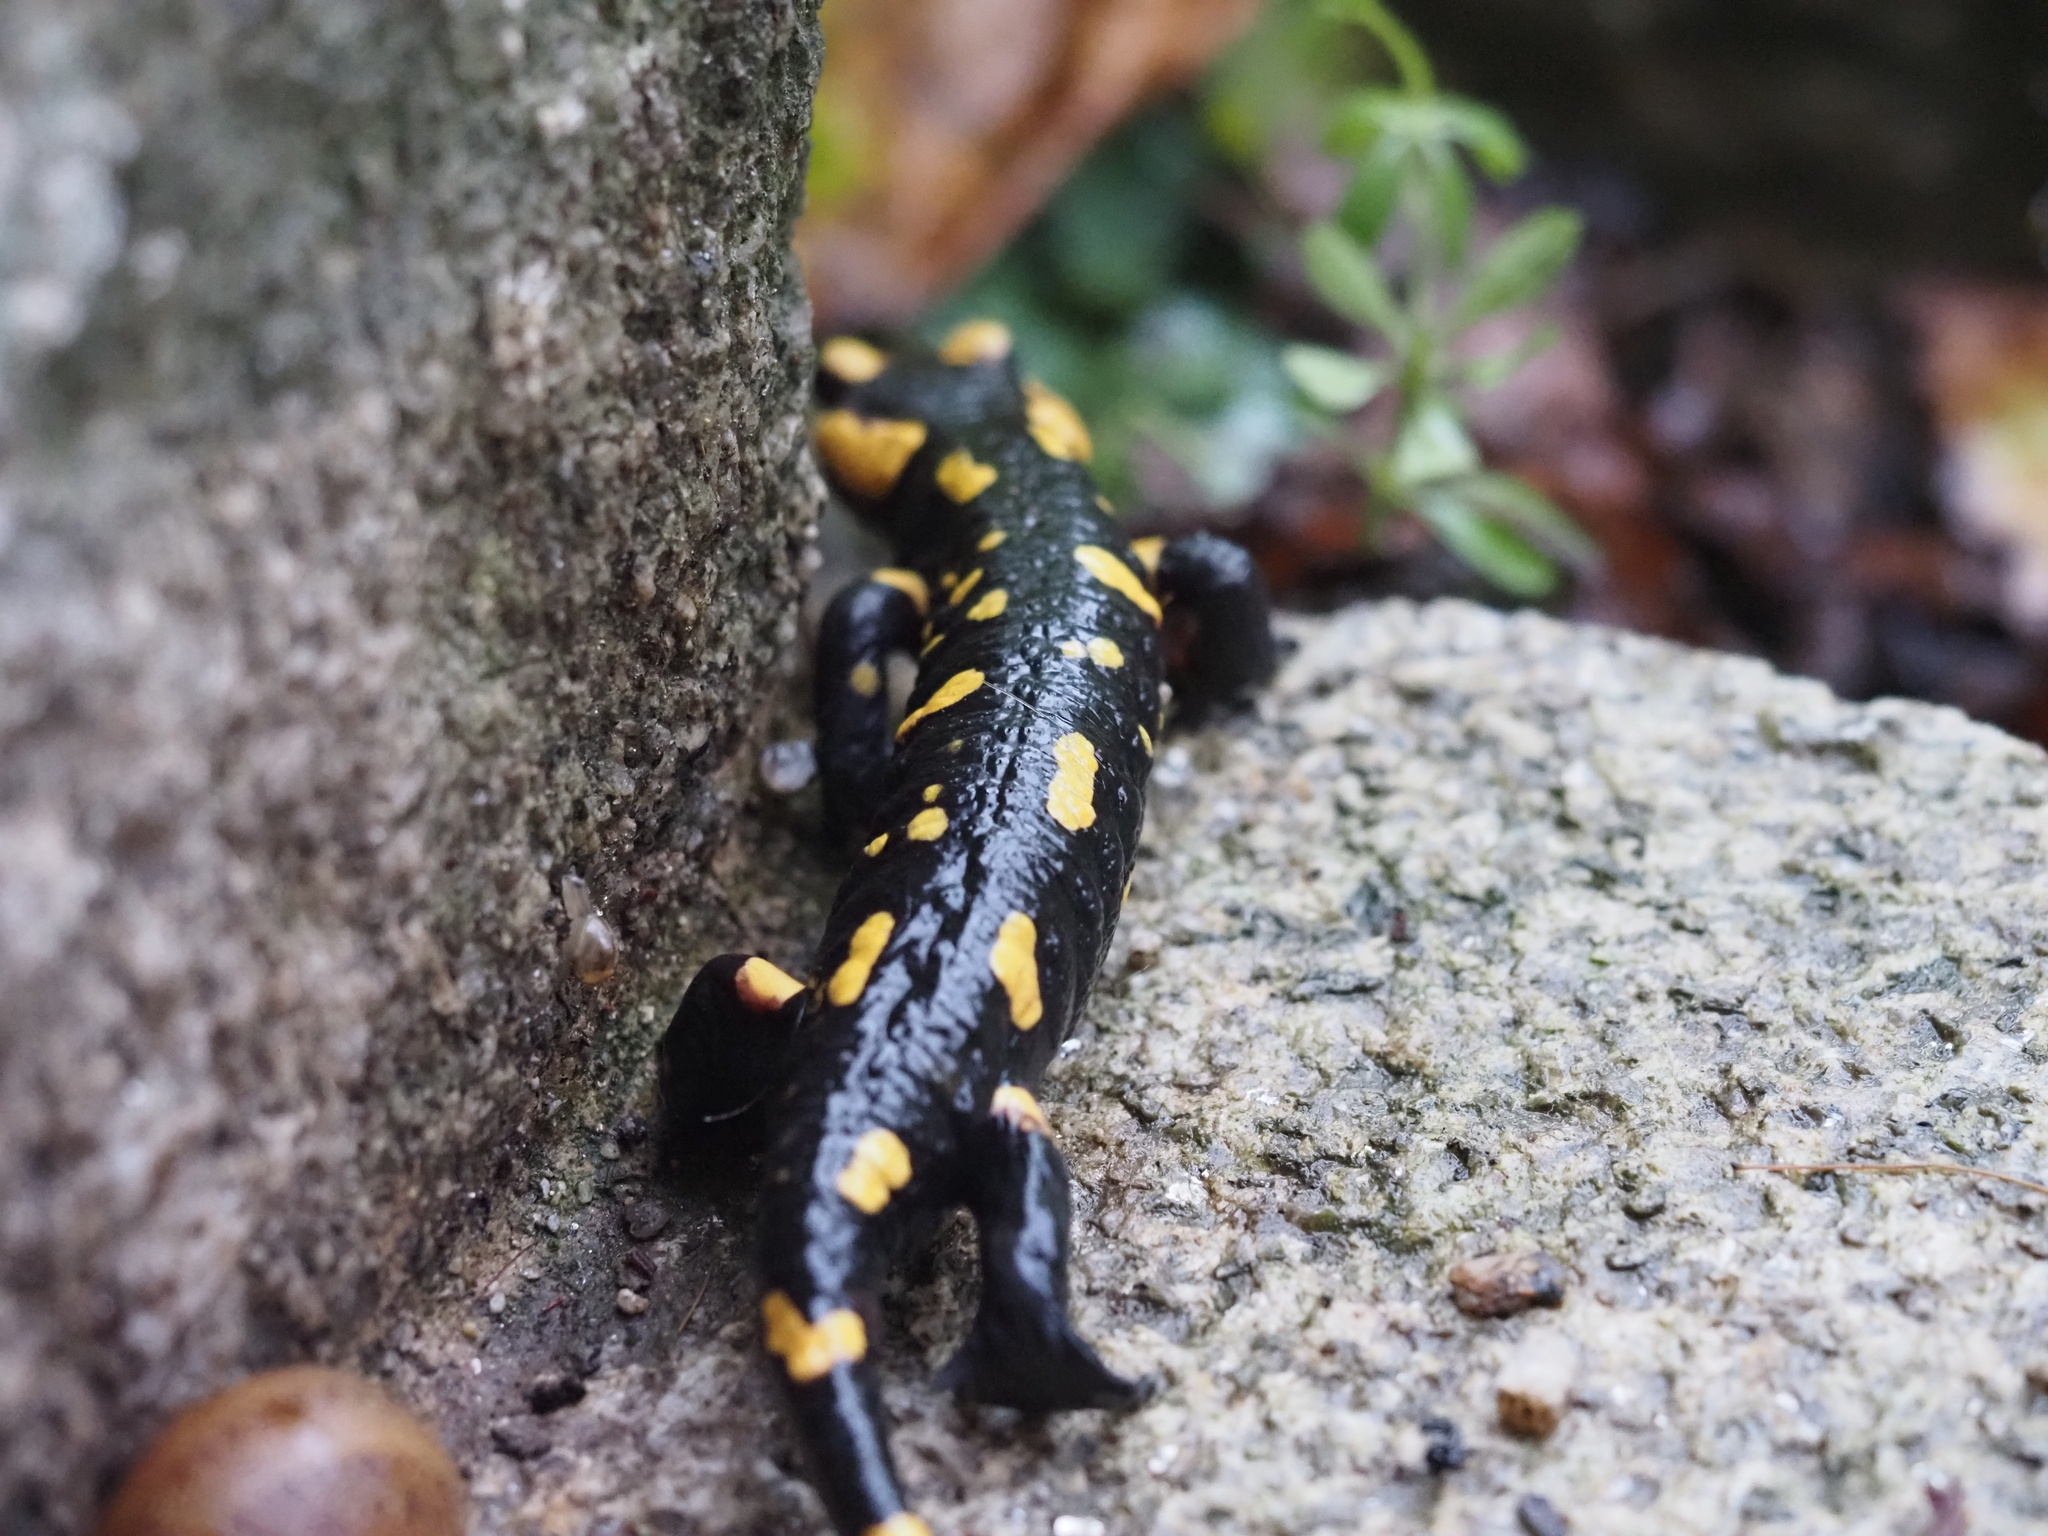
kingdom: Animalia
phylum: Chordata
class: Amphibia
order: Caudata
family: Salamandridae
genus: Salamandra
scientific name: Salamandra salamandra
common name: Fire salamander
